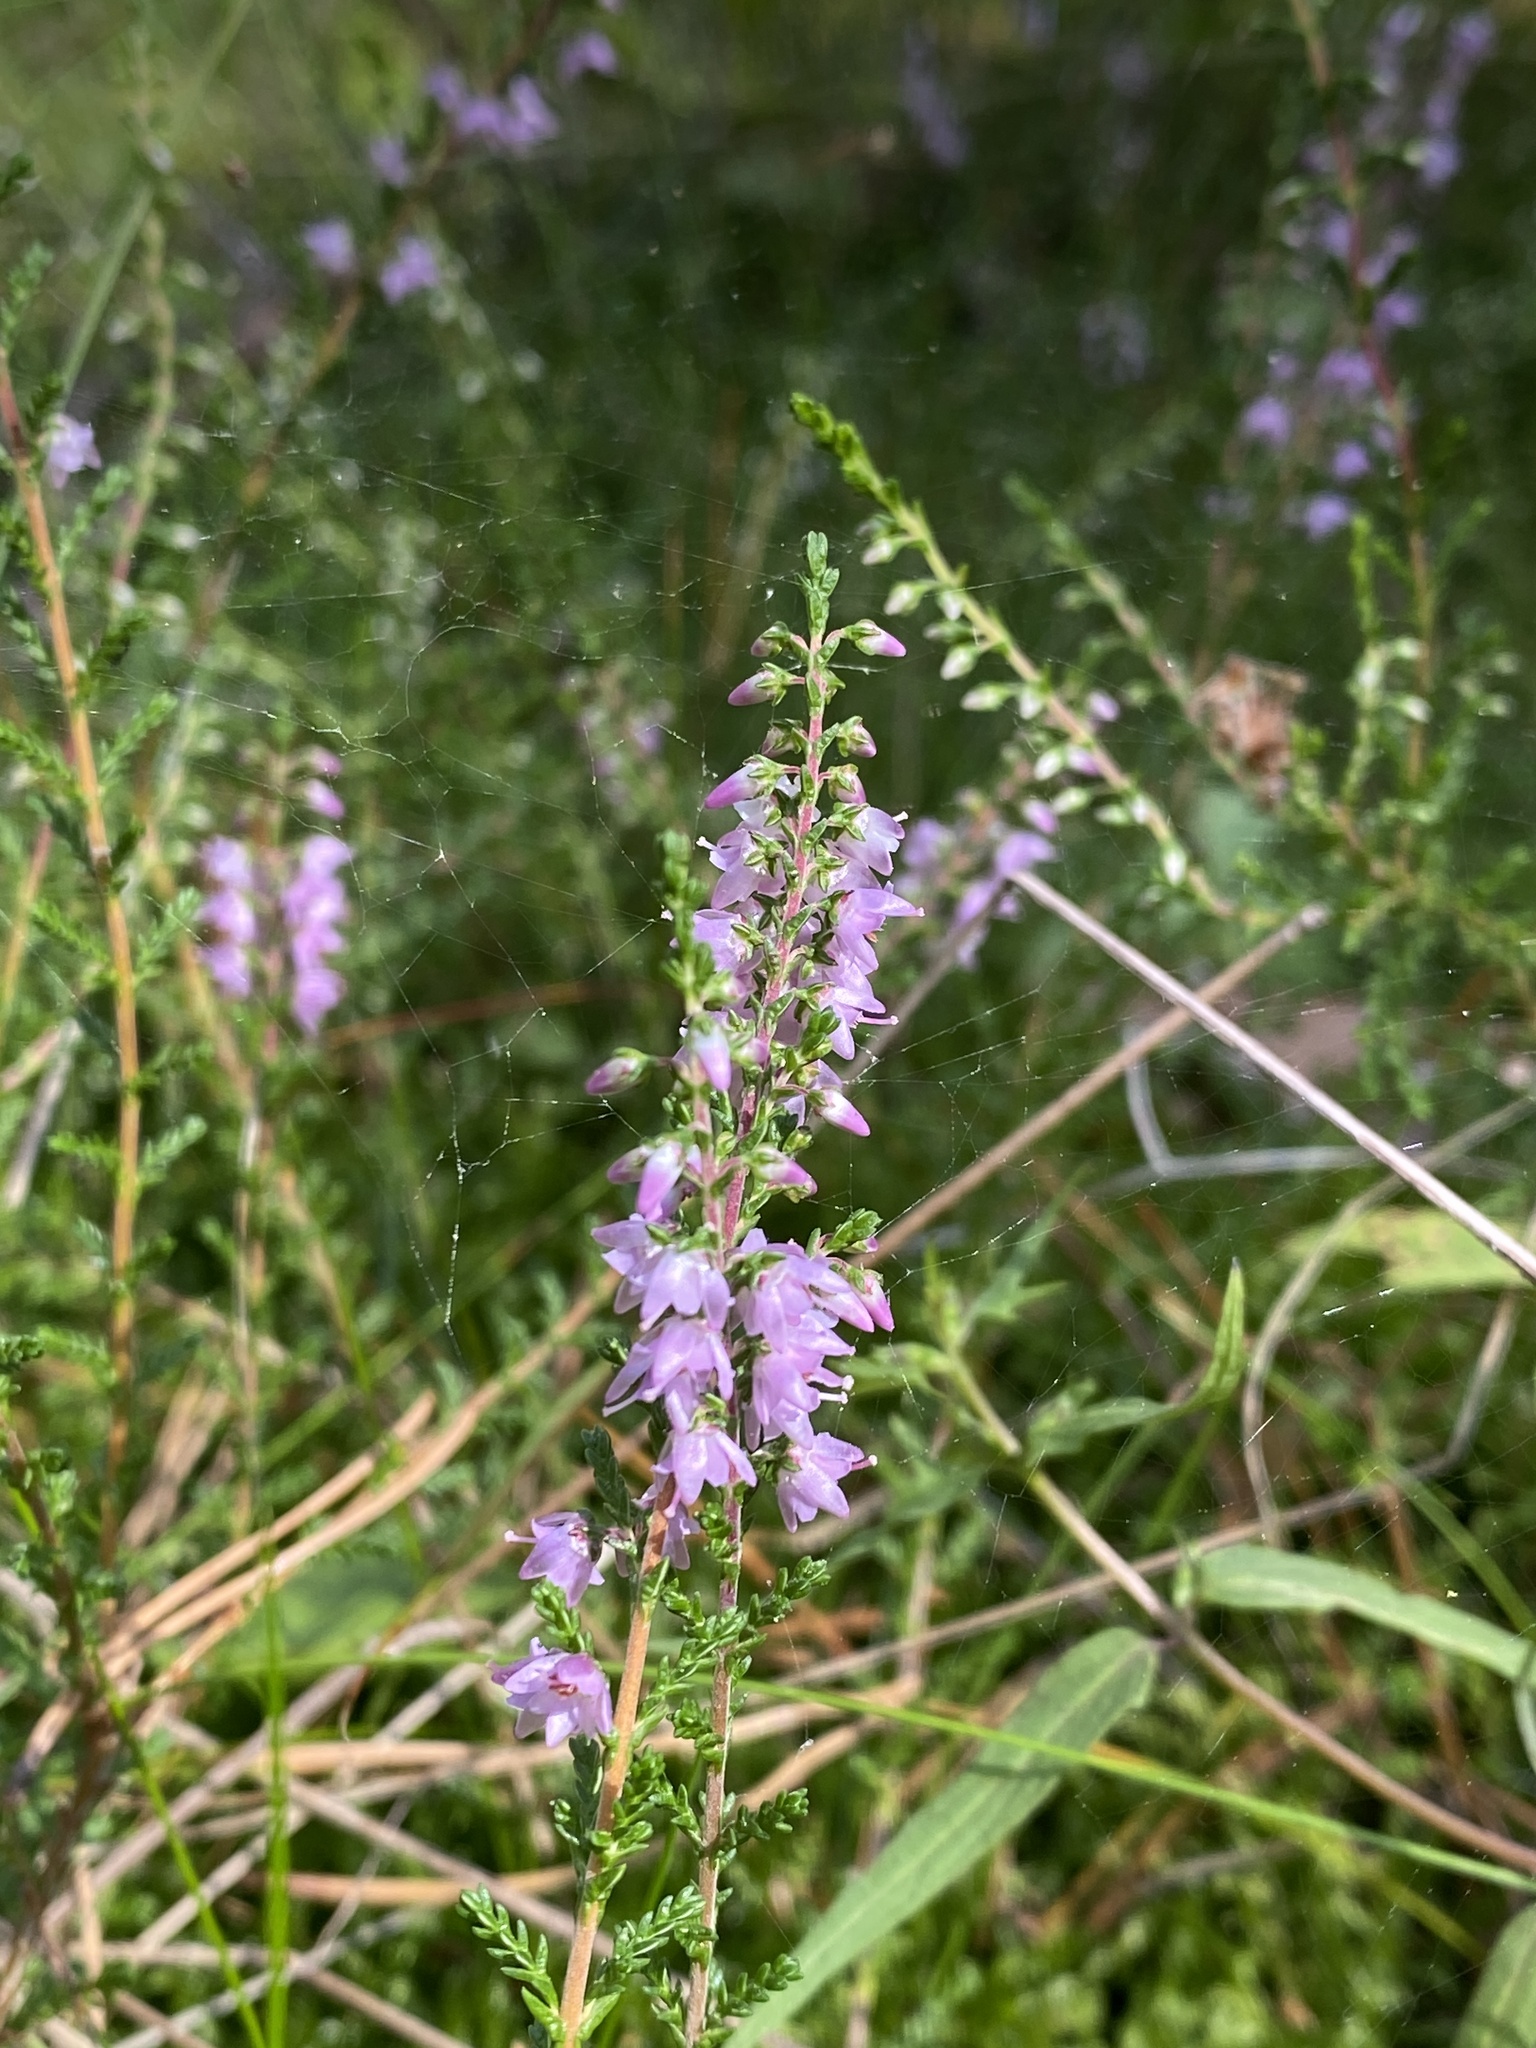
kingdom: Plantae
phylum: Tracheophyta
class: Magnoliopsida
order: Ericales
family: Ericaceae
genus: Calluna
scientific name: Calluna vulgaris
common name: Heather
